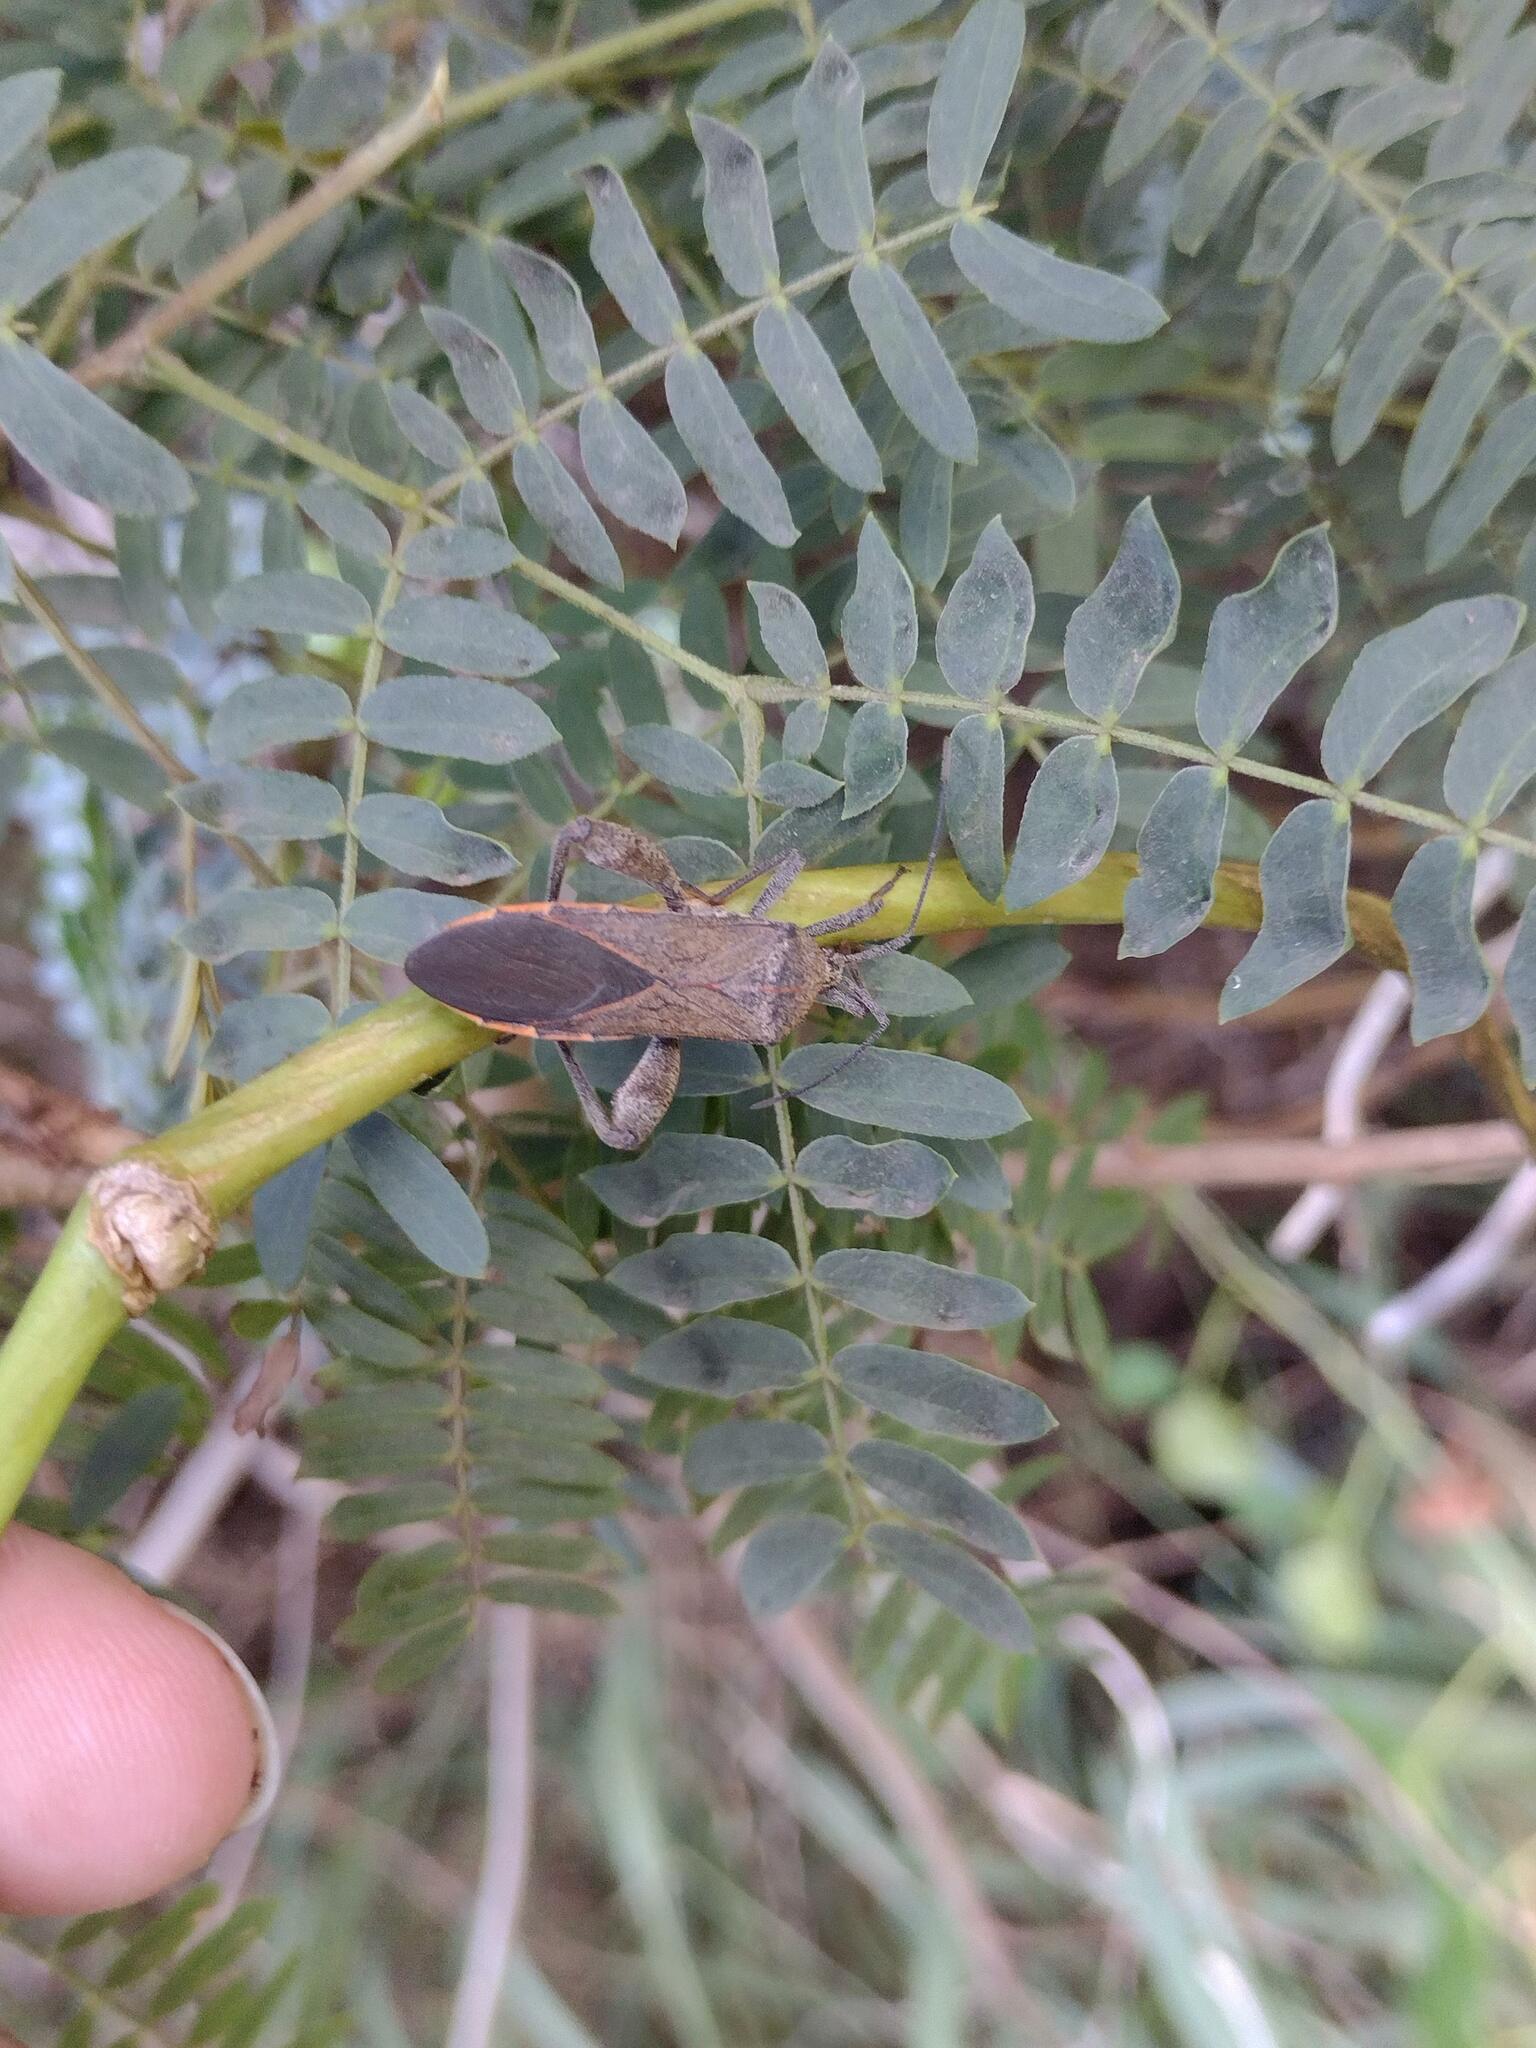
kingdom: Animalia
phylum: Arthropoda
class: Insecta
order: Hemiptera
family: Coreidae
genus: Physomerus
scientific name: Physomerus grossipes
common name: Squash bug
